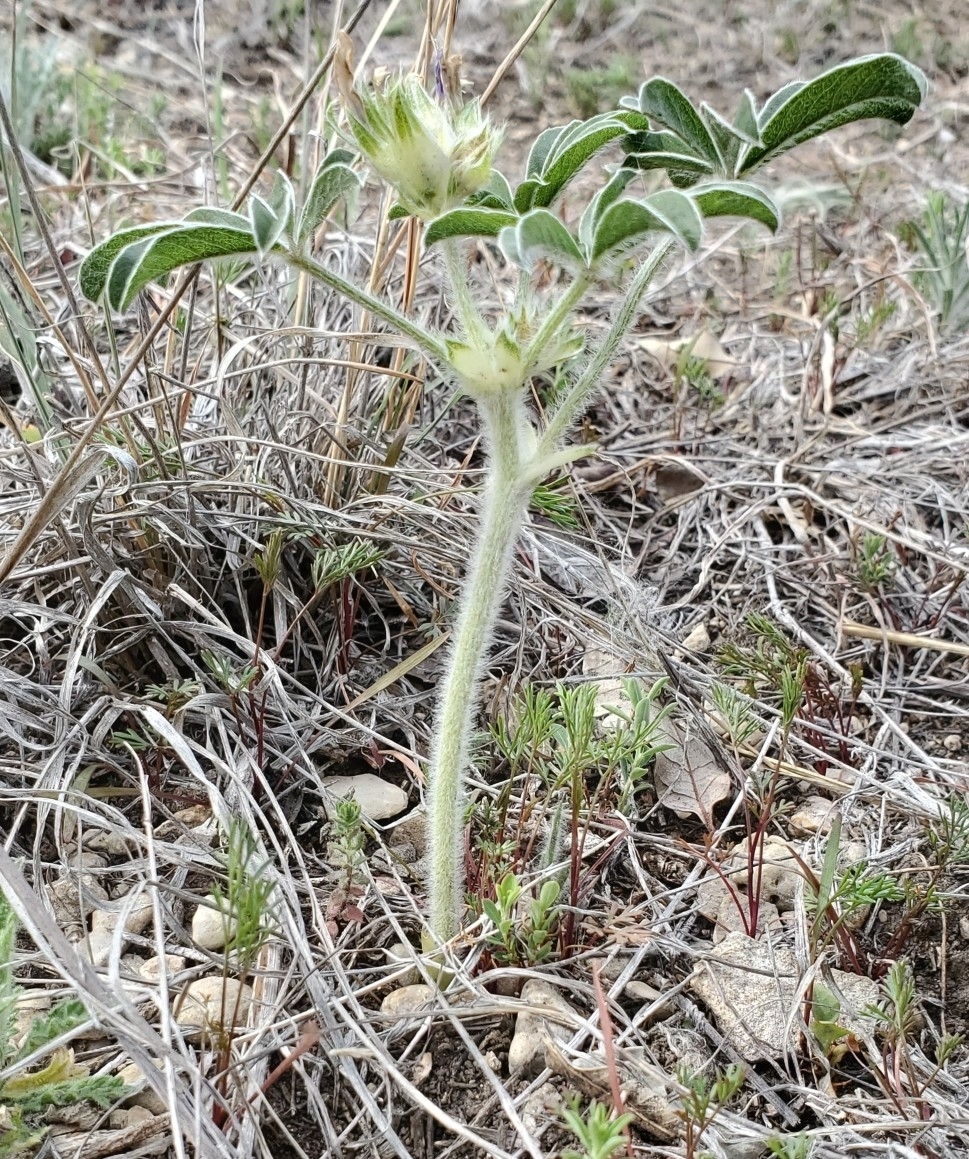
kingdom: Plantae
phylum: Tracheophyta
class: Magnoliopsida
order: Fabales
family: Fabaceae
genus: Pediomelum
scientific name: Pediomelum latestipulatum
